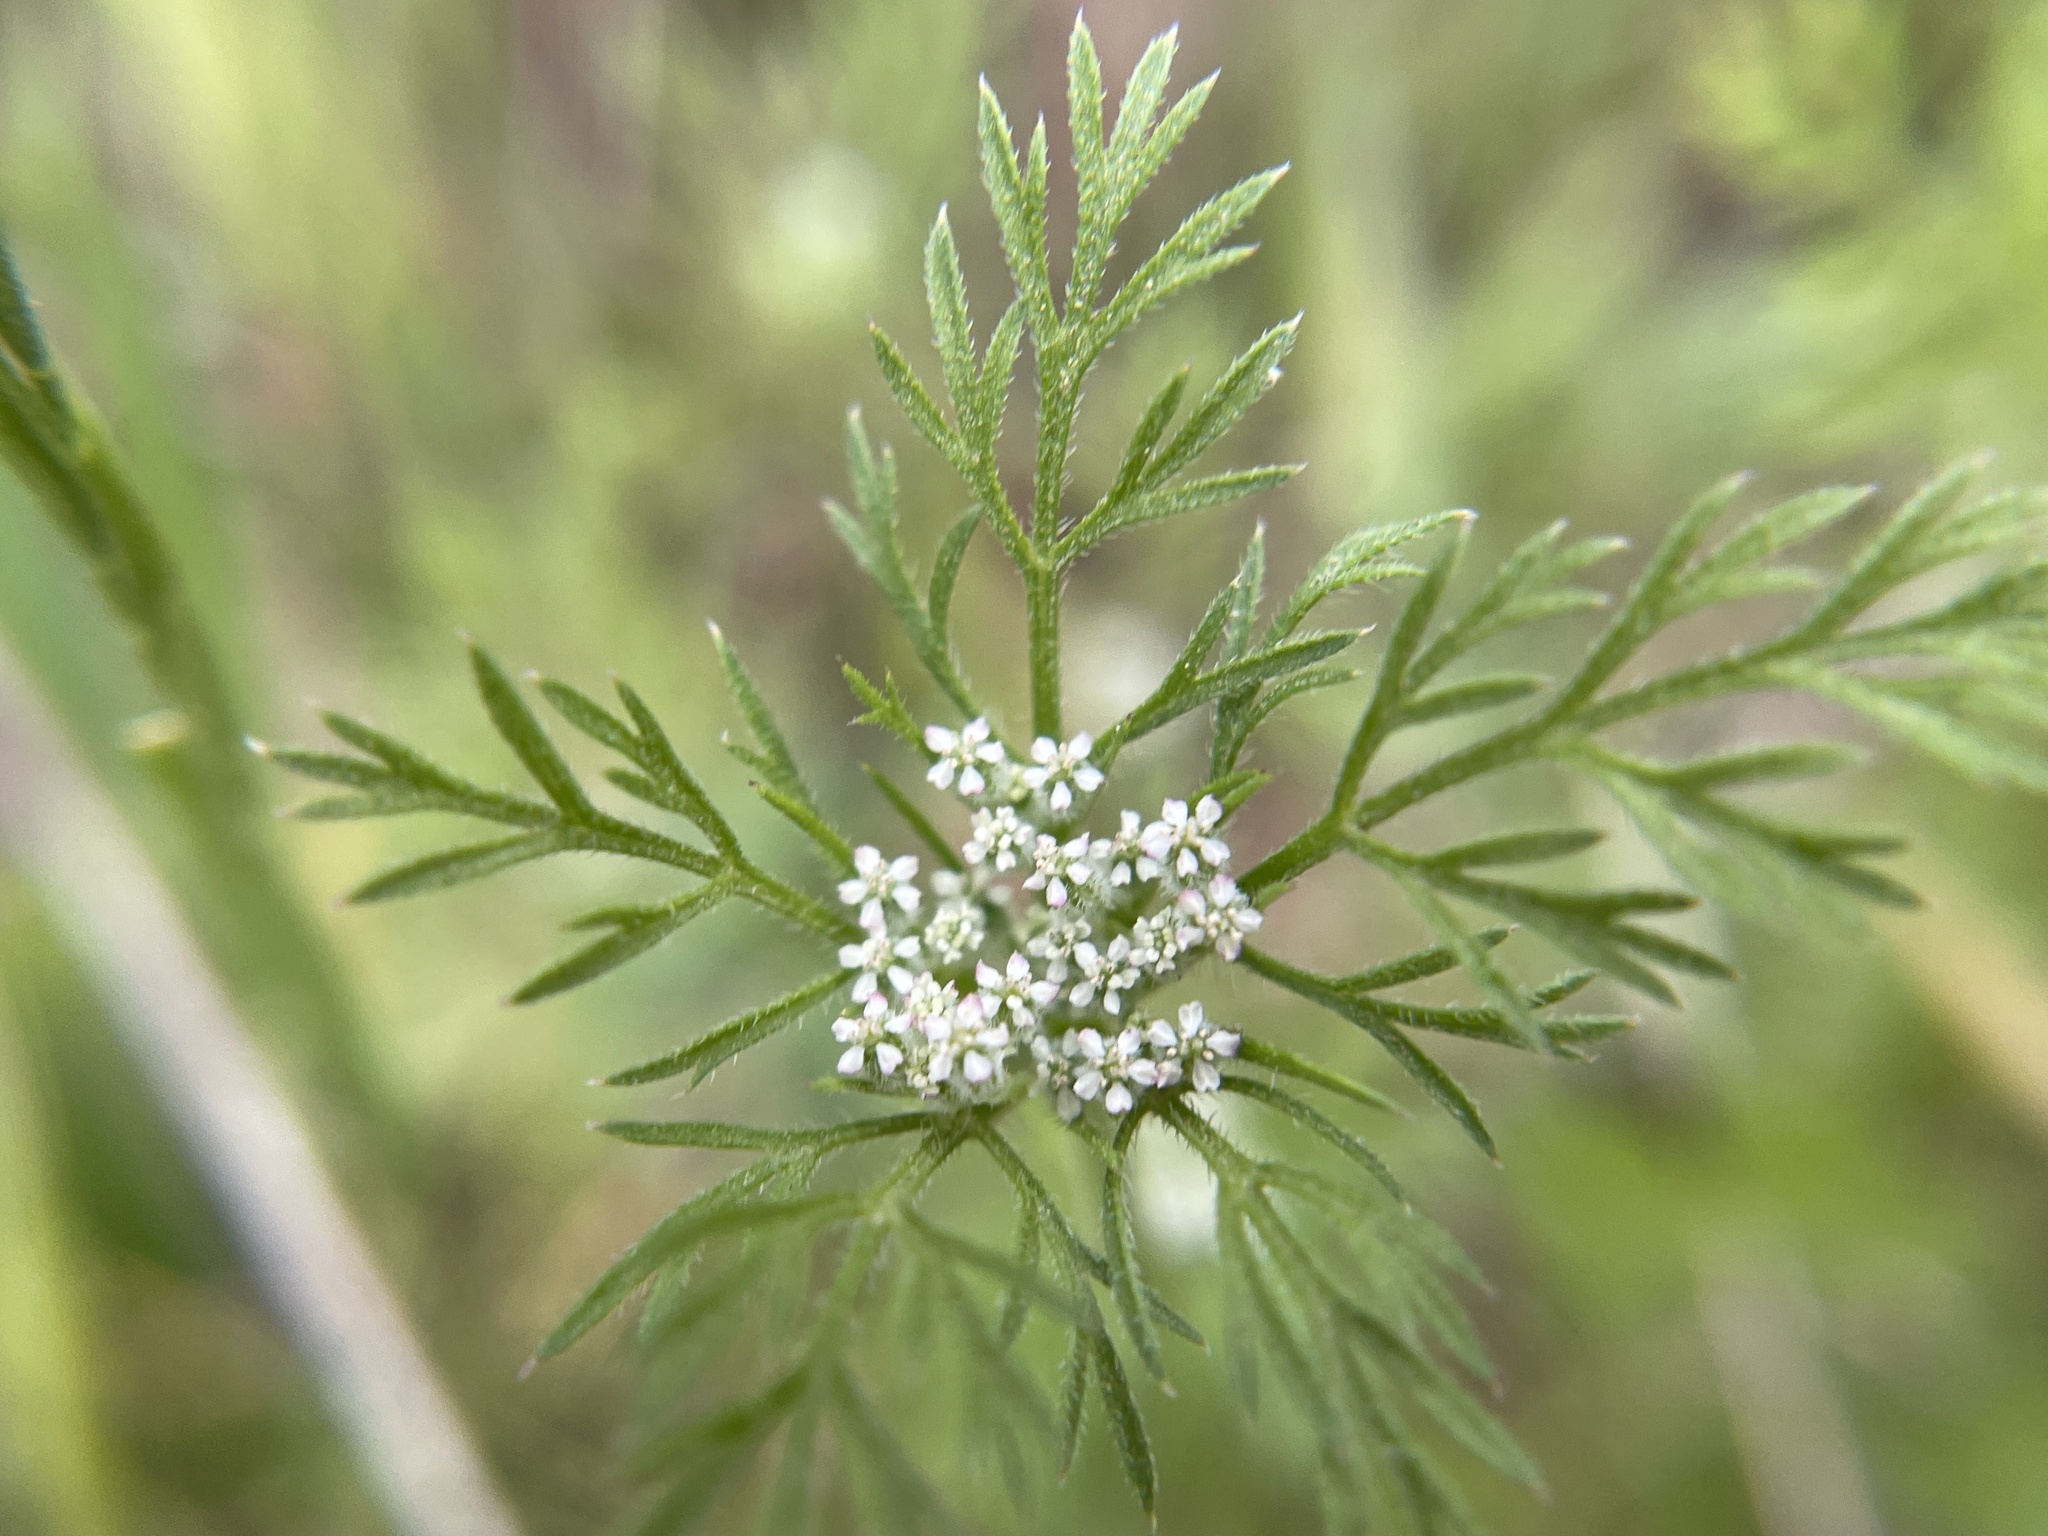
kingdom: Plantae
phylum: Tracheophyta
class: Magnoliopsida
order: Apiales
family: Apiaceae
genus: Daucus
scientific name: Daucus pusillus
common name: Southwest wild carrot
